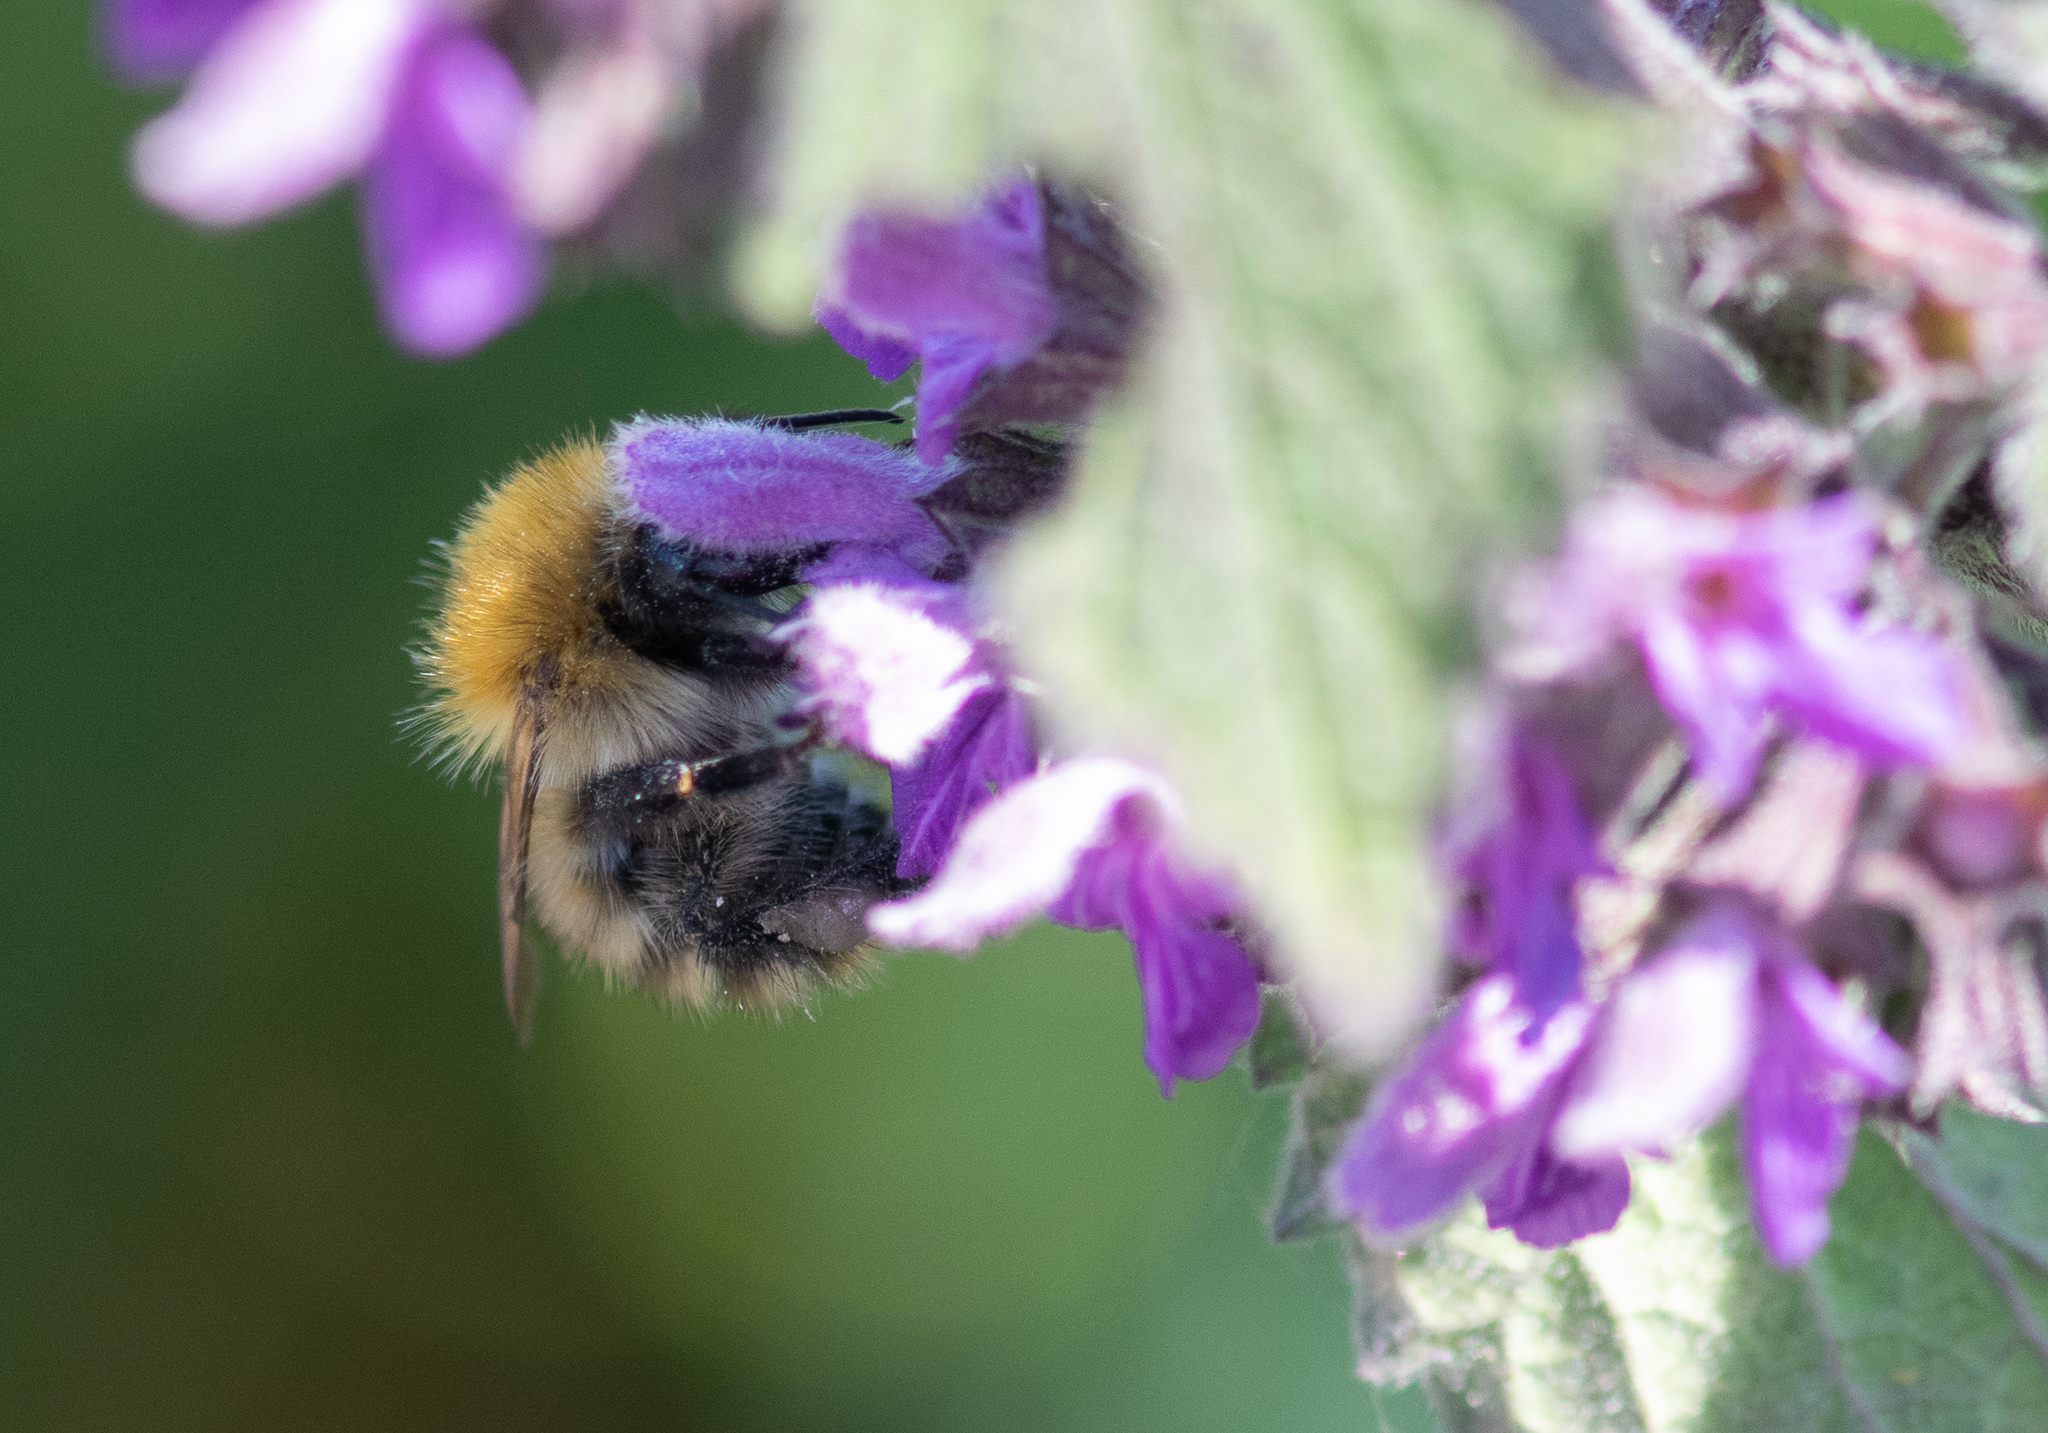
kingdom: Animalia
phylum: Arthropoda
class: Insecta
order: Hymenoptera
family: Apidae
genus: Bombus
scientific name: Bombus pascuorum
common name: Common carder bee
